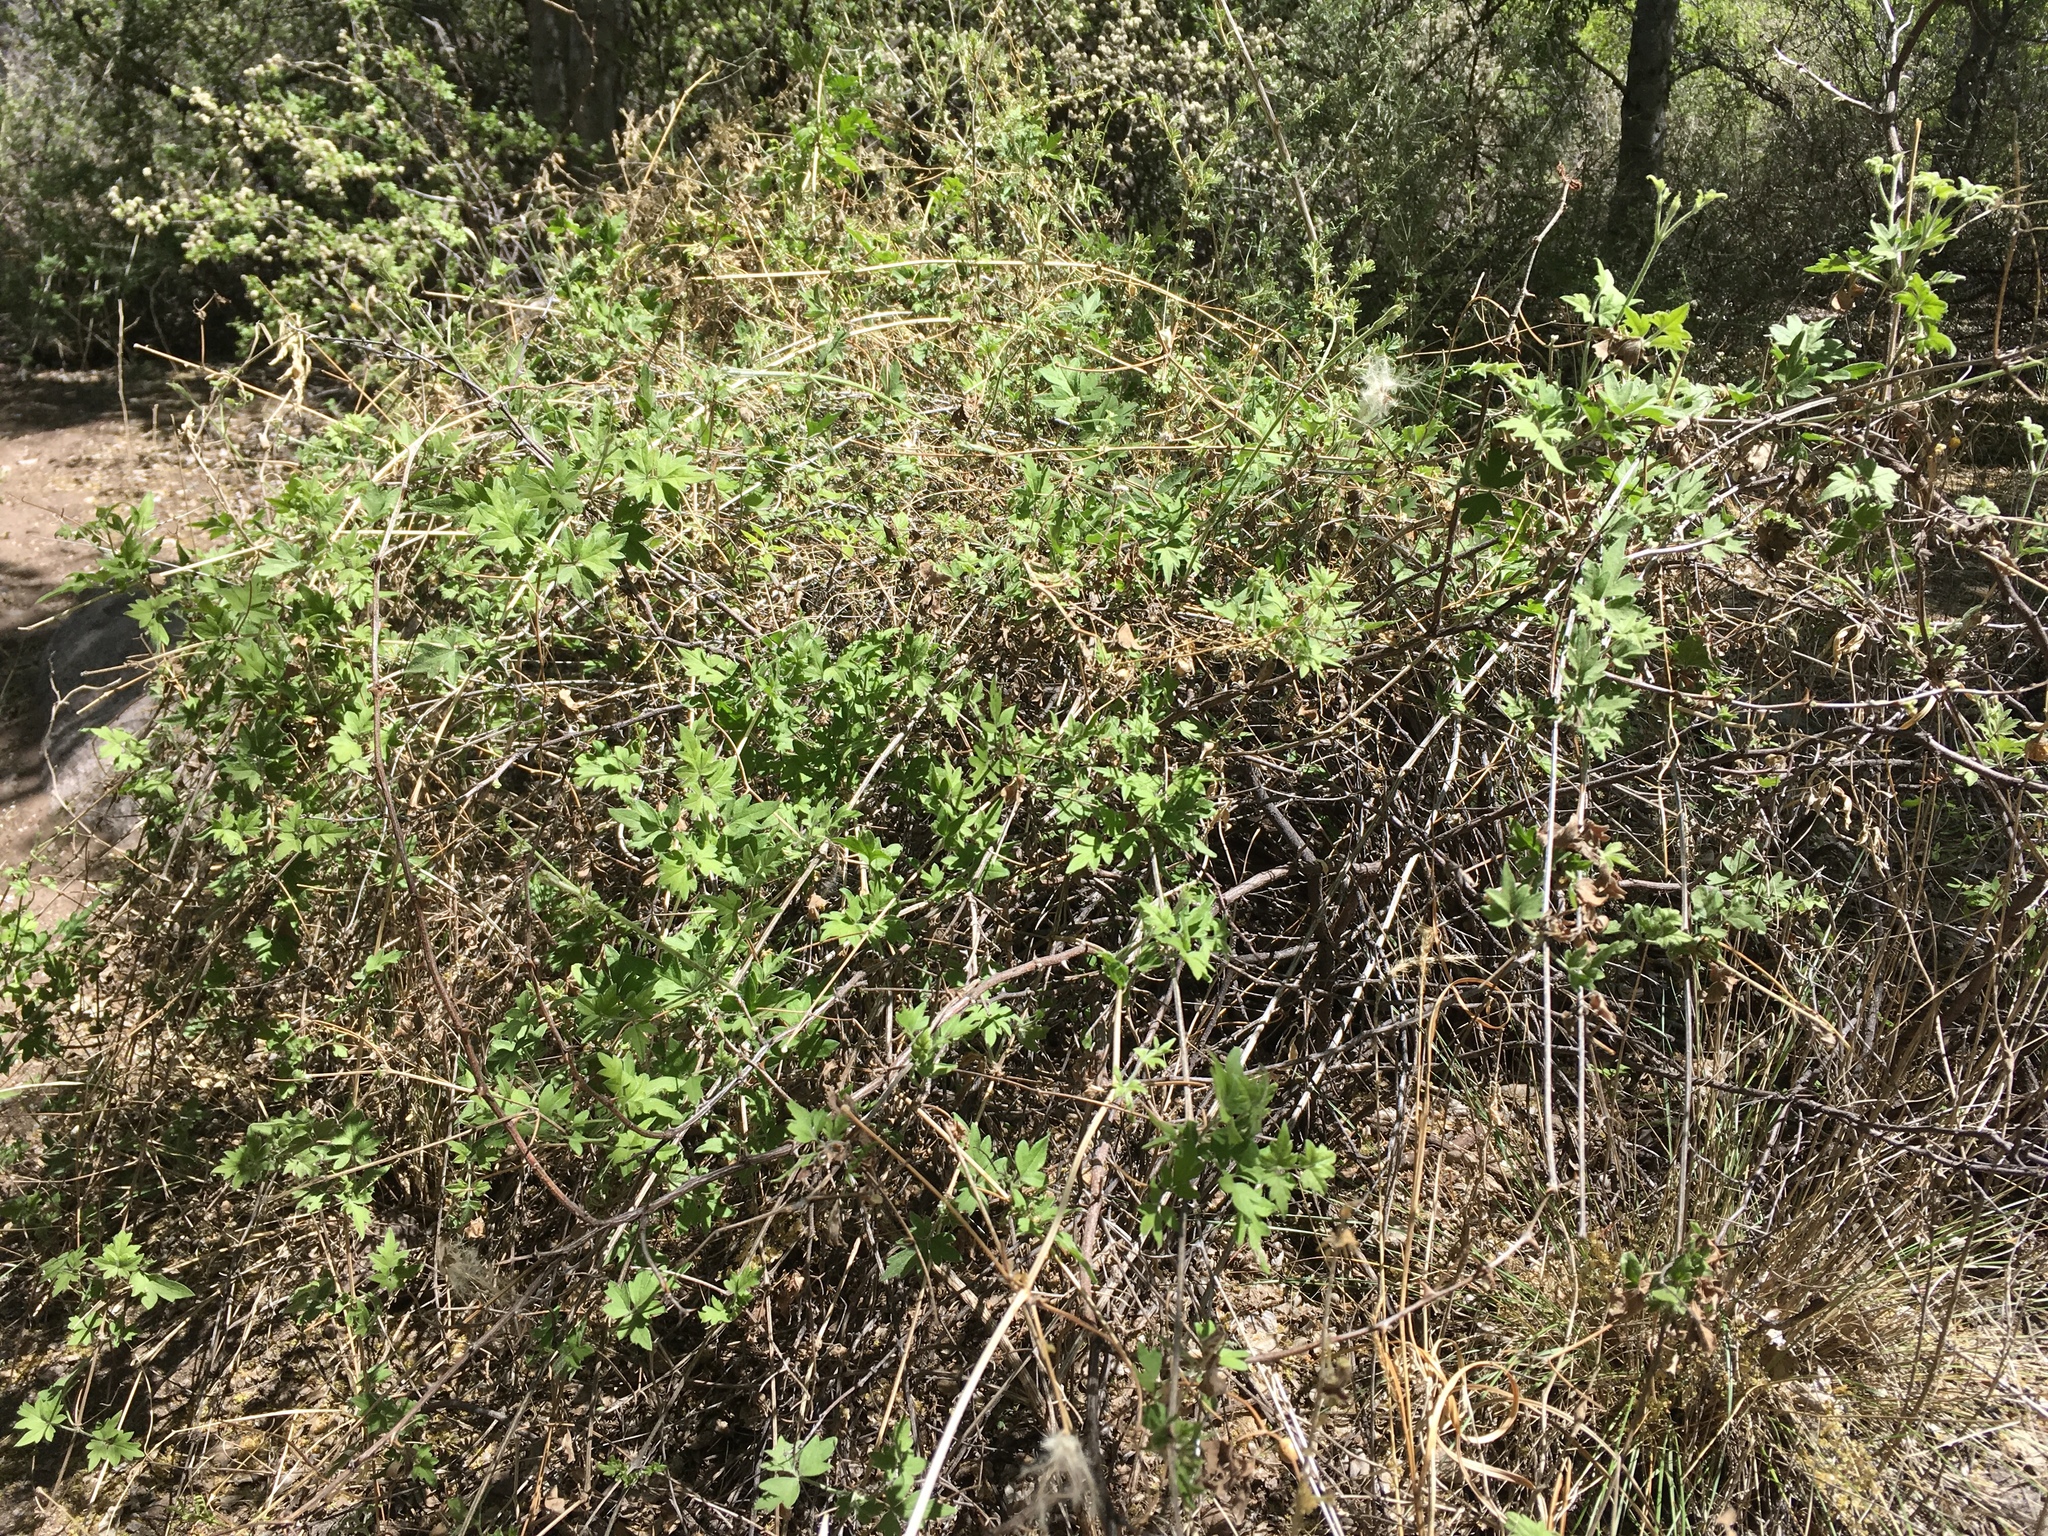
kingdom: Plantae
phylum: Tracheophyta
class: Magnoliopsida
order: Ranunculales
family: Ranunculaceae
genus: Clematis
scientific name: Clematis drummondii
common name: Texas virgin's bower
